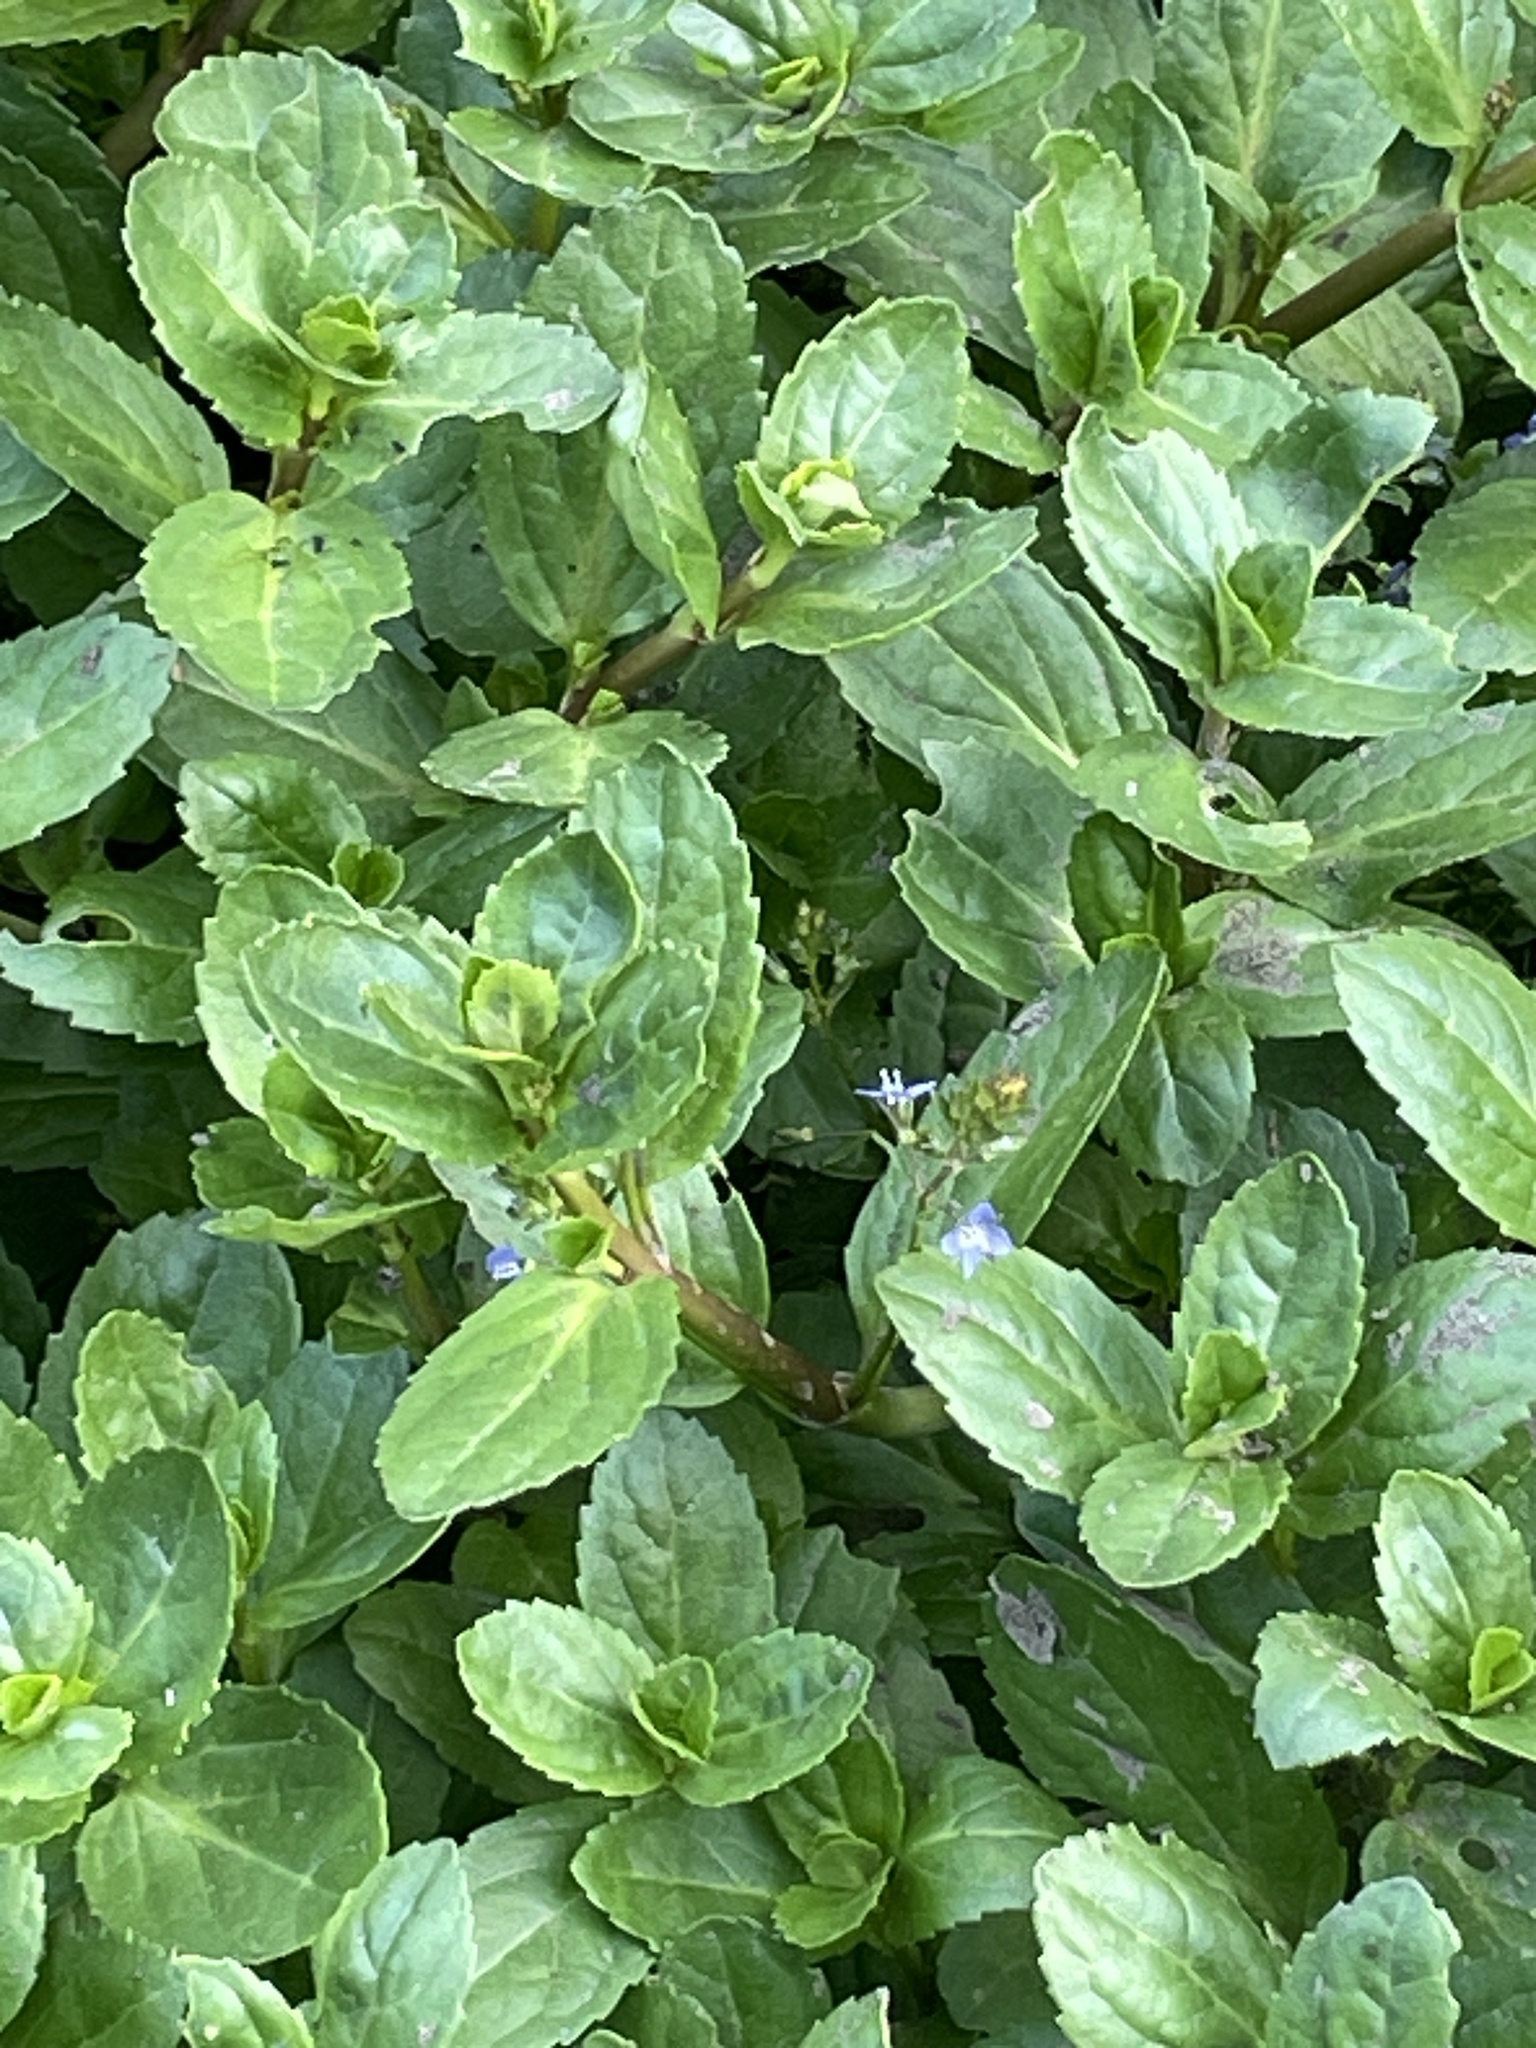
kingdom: Plantae
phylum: Tracheophyta
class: Magnoliopsida
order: Lamiales
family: Plantaginaceae
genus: Veronica
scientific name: Veronica beccabunga
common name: Brooklime
